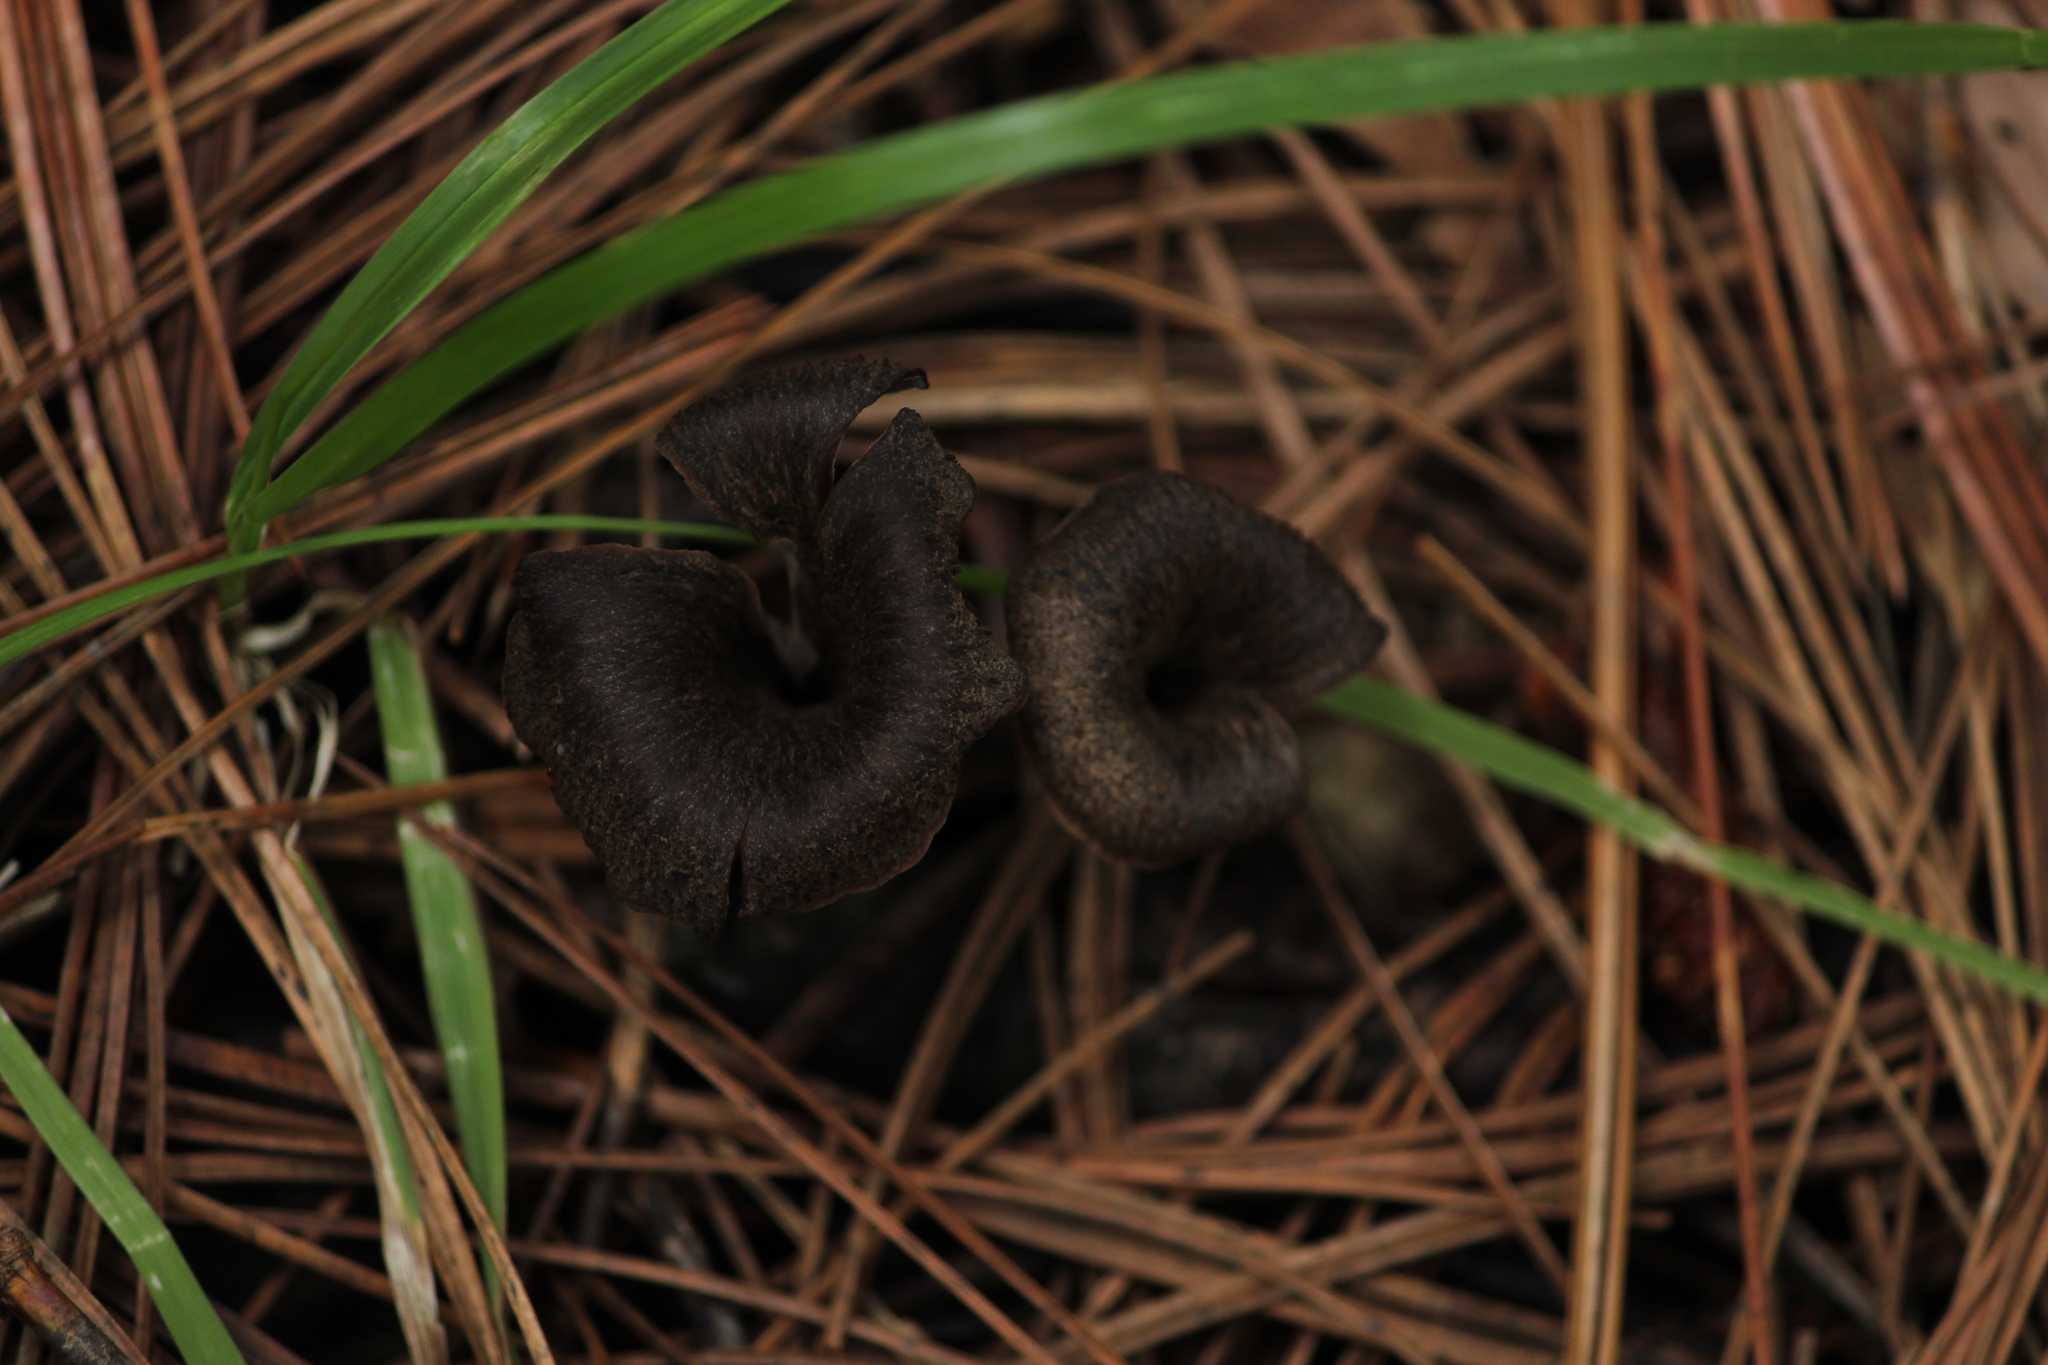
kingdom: Fungi
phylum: Basidiomycota
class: Agaricomycetes
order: Cantharellales
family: Hydnaceae
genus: Craterellus
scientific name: Craterellus cornucopioides
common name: Horn of plenty
